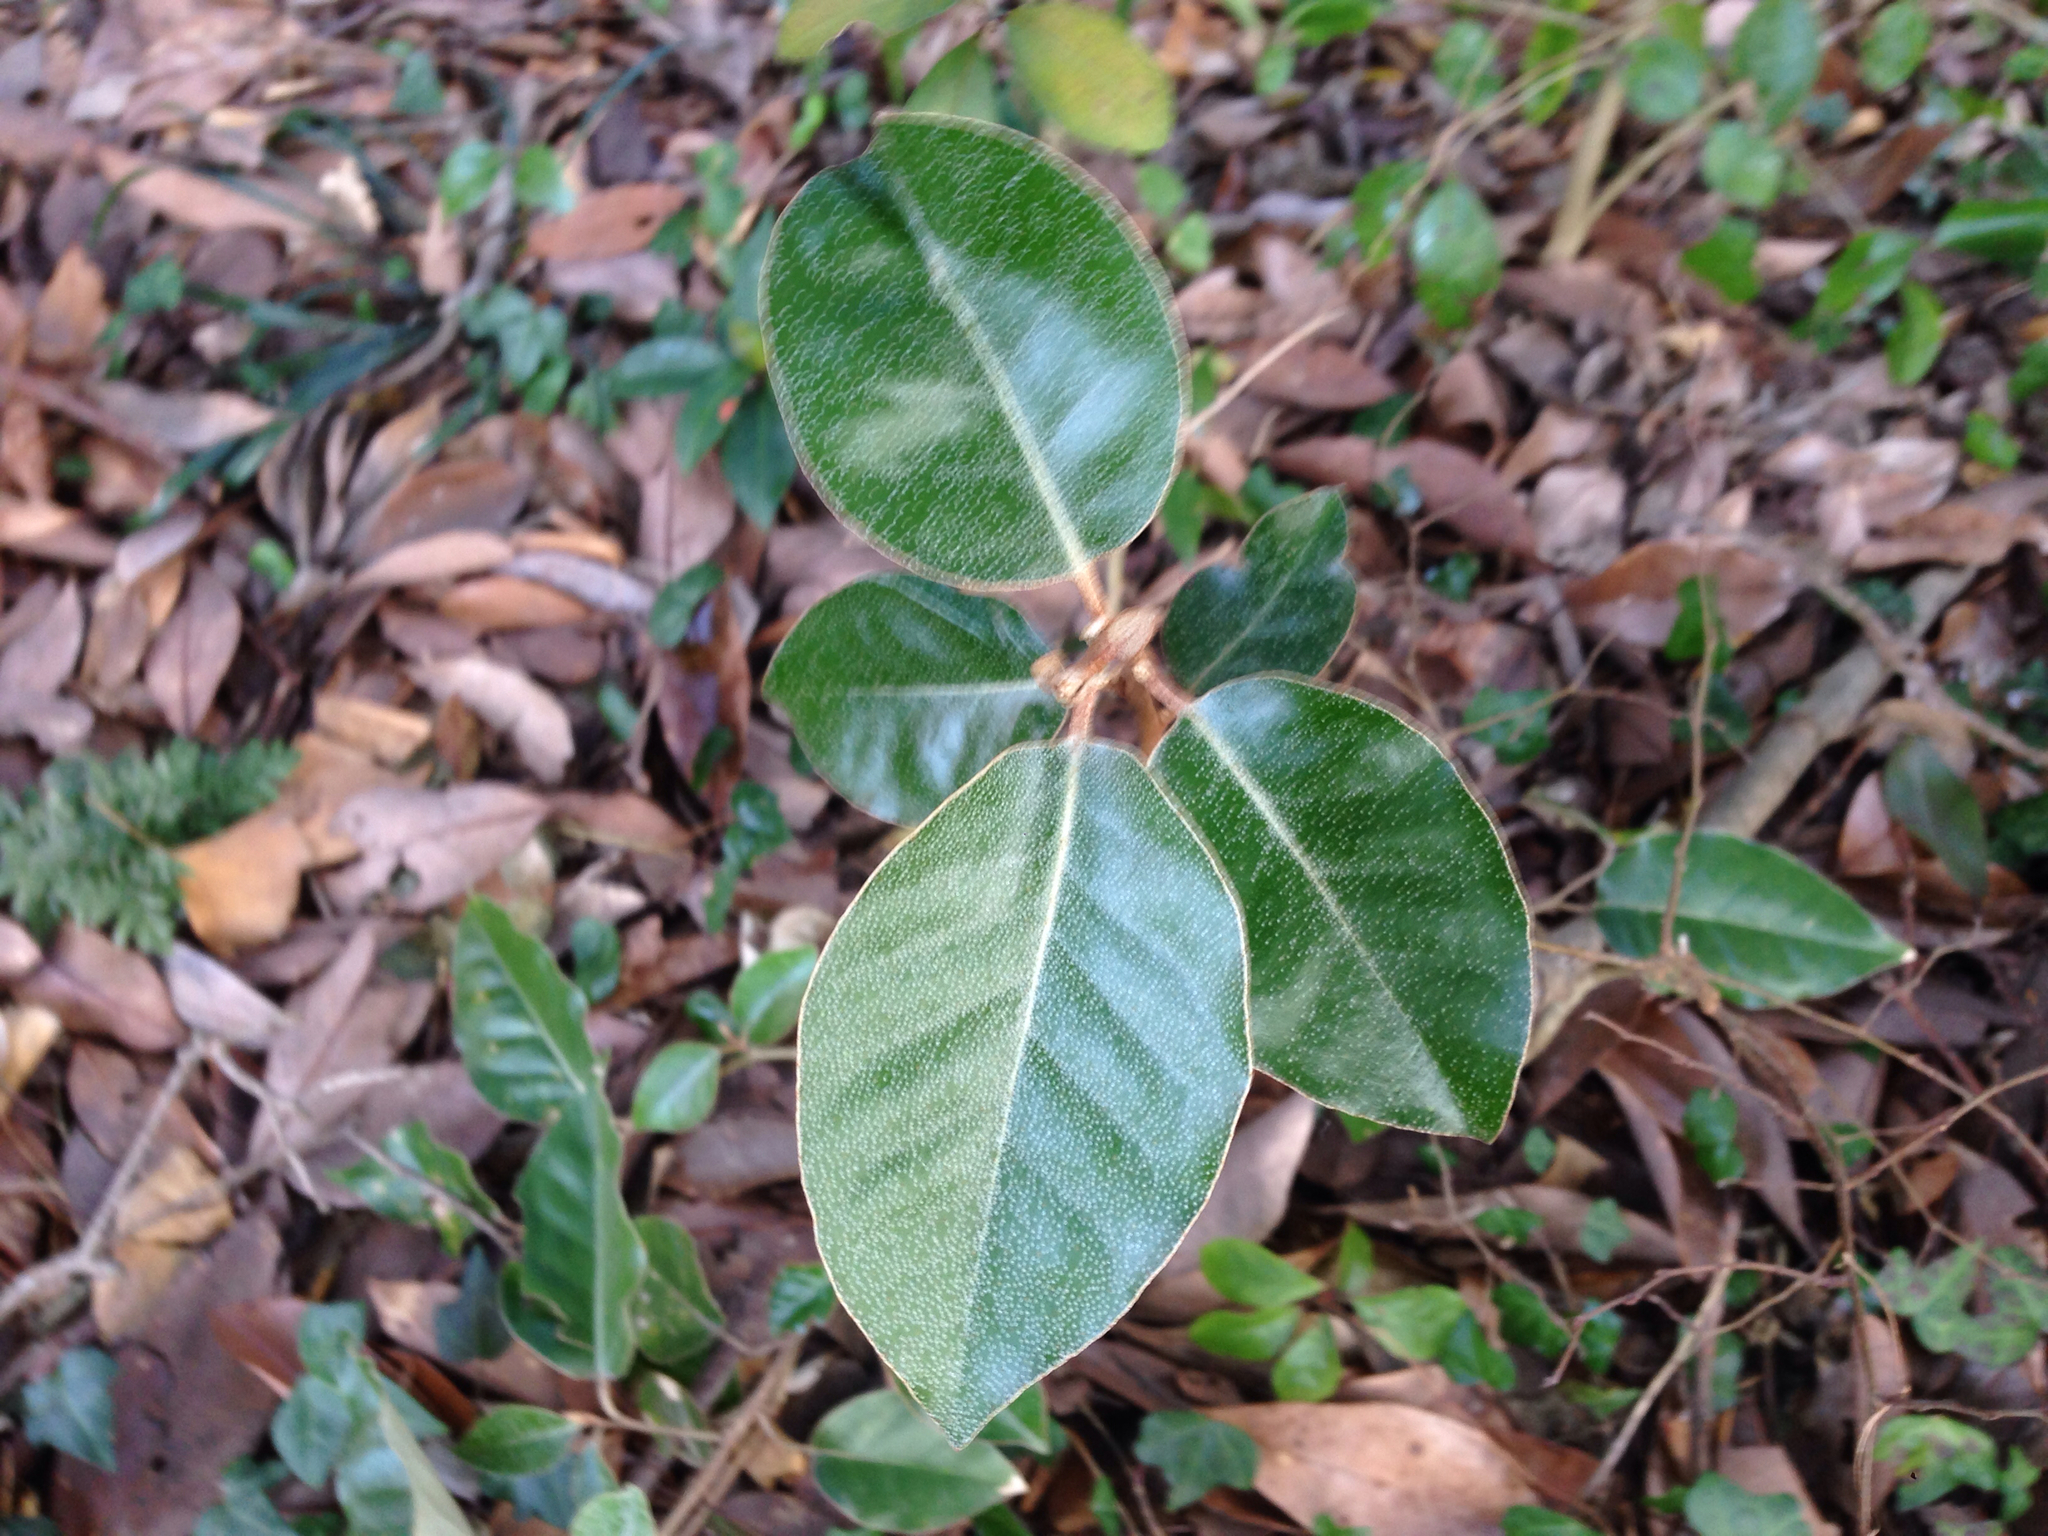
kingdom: Plantae
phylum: Tracheophyta
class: Magnoliopsida
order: Rosales
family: Elaeagnaceae
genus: Elaeagnus
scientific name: Elaeagnus macrophylla
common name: Broad-leaved oleaster
